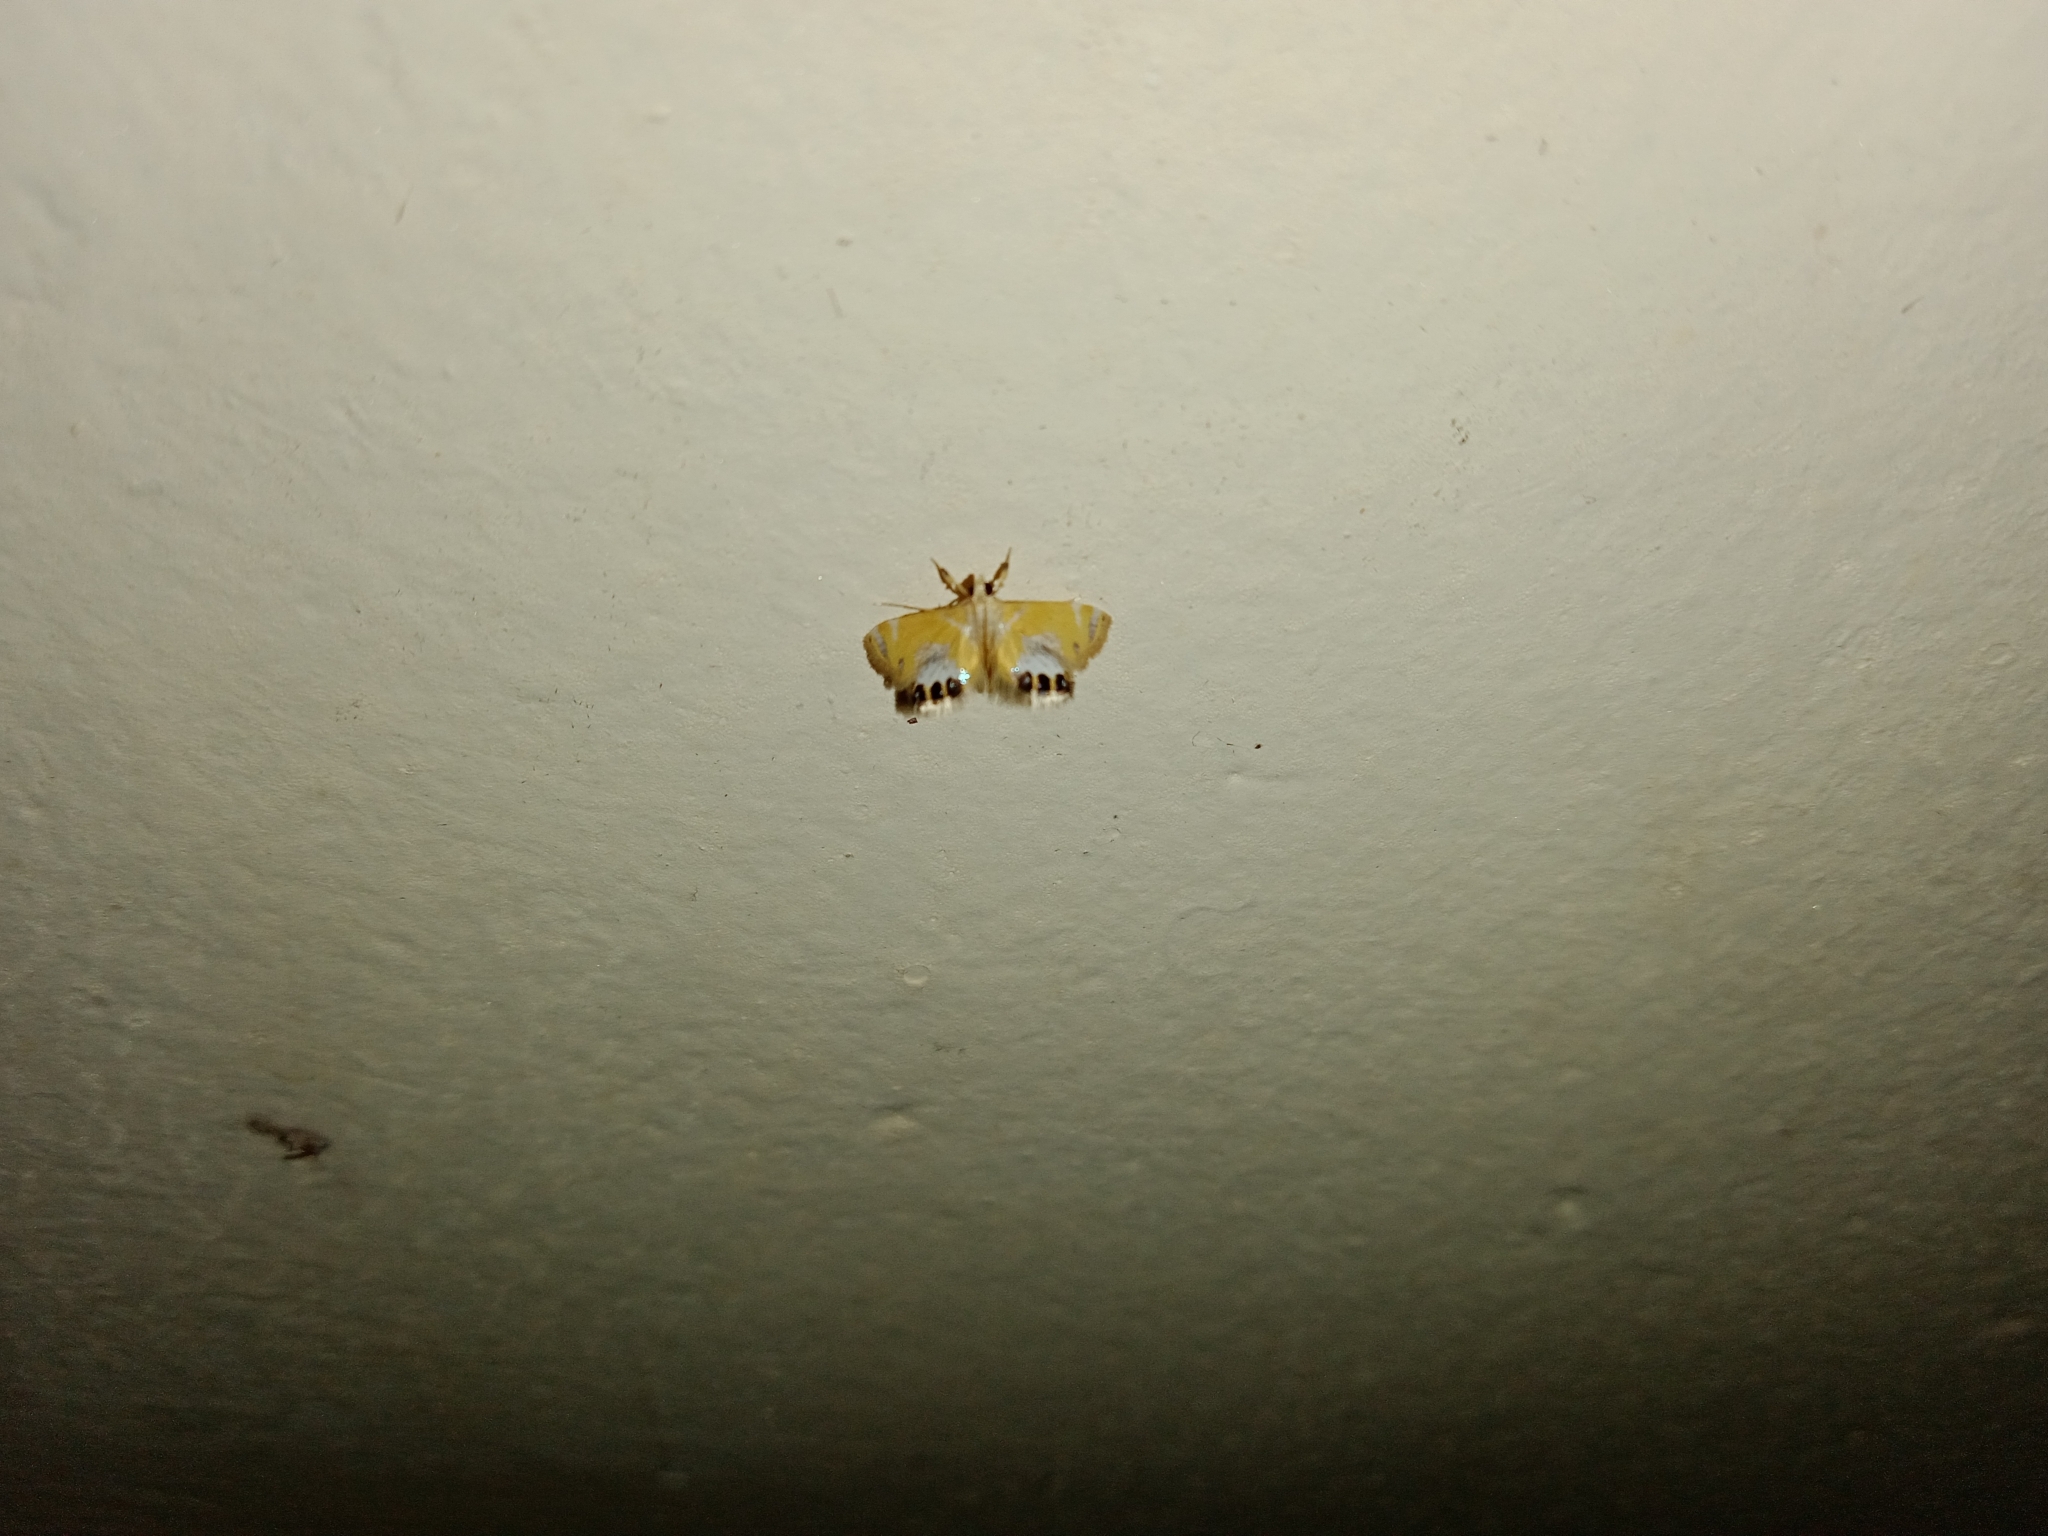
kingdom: Animalia
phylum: Arthropoda
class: Insecta
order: Lepidoptera
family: Crambidae
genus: Nymphicula
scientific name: Nymphicula
